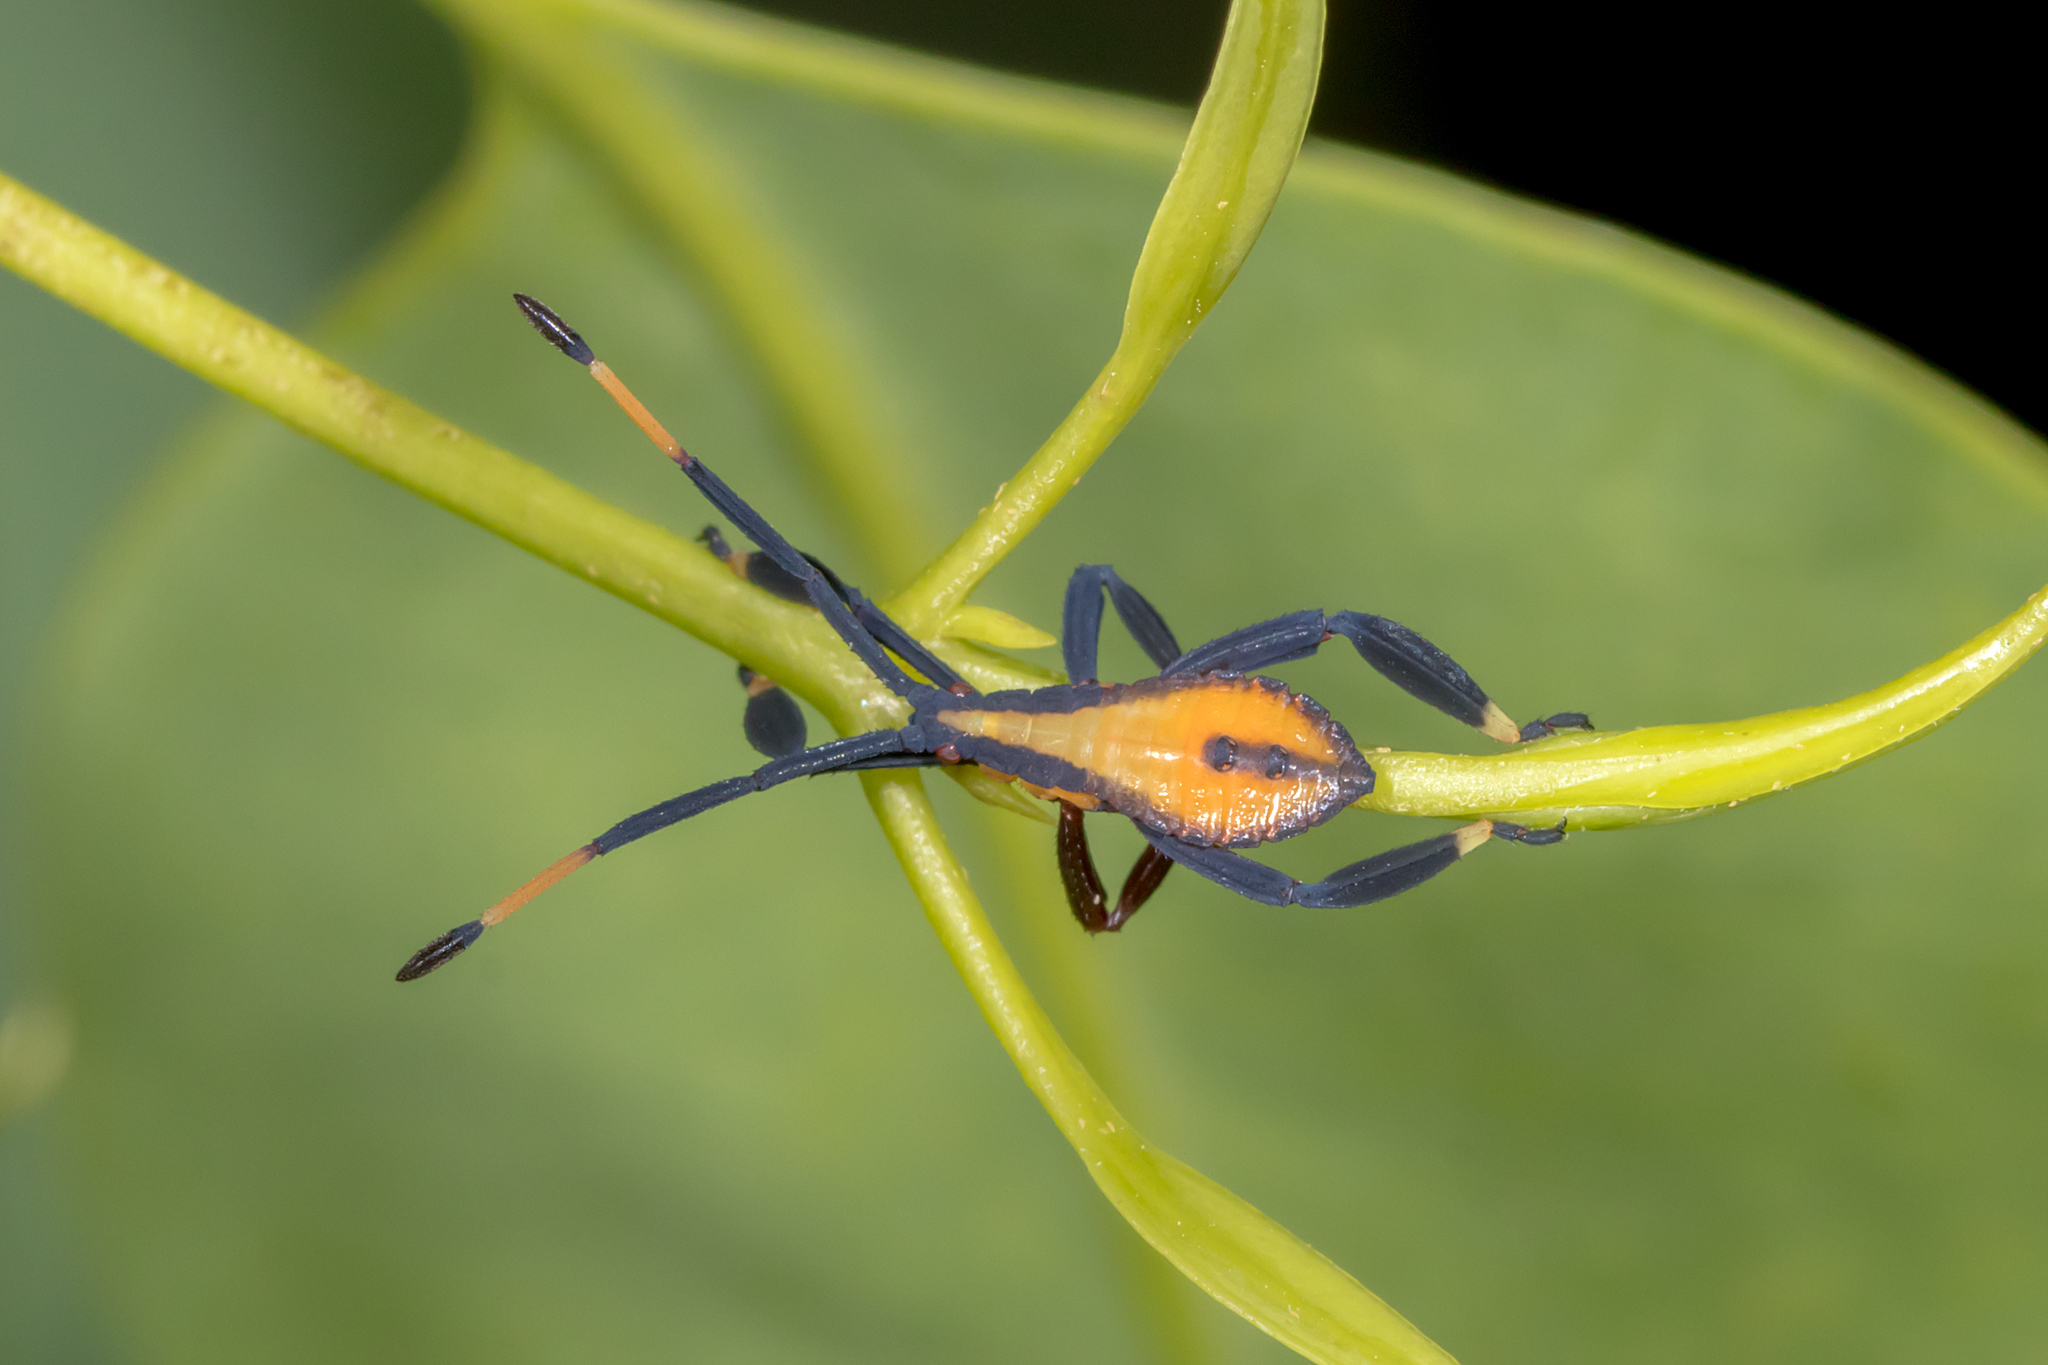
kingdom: Animalia
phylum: Arthropoda
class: Insecta
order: Hemiptera
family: Coreidae
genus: Amorbus
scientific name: Amorbus alternatus
